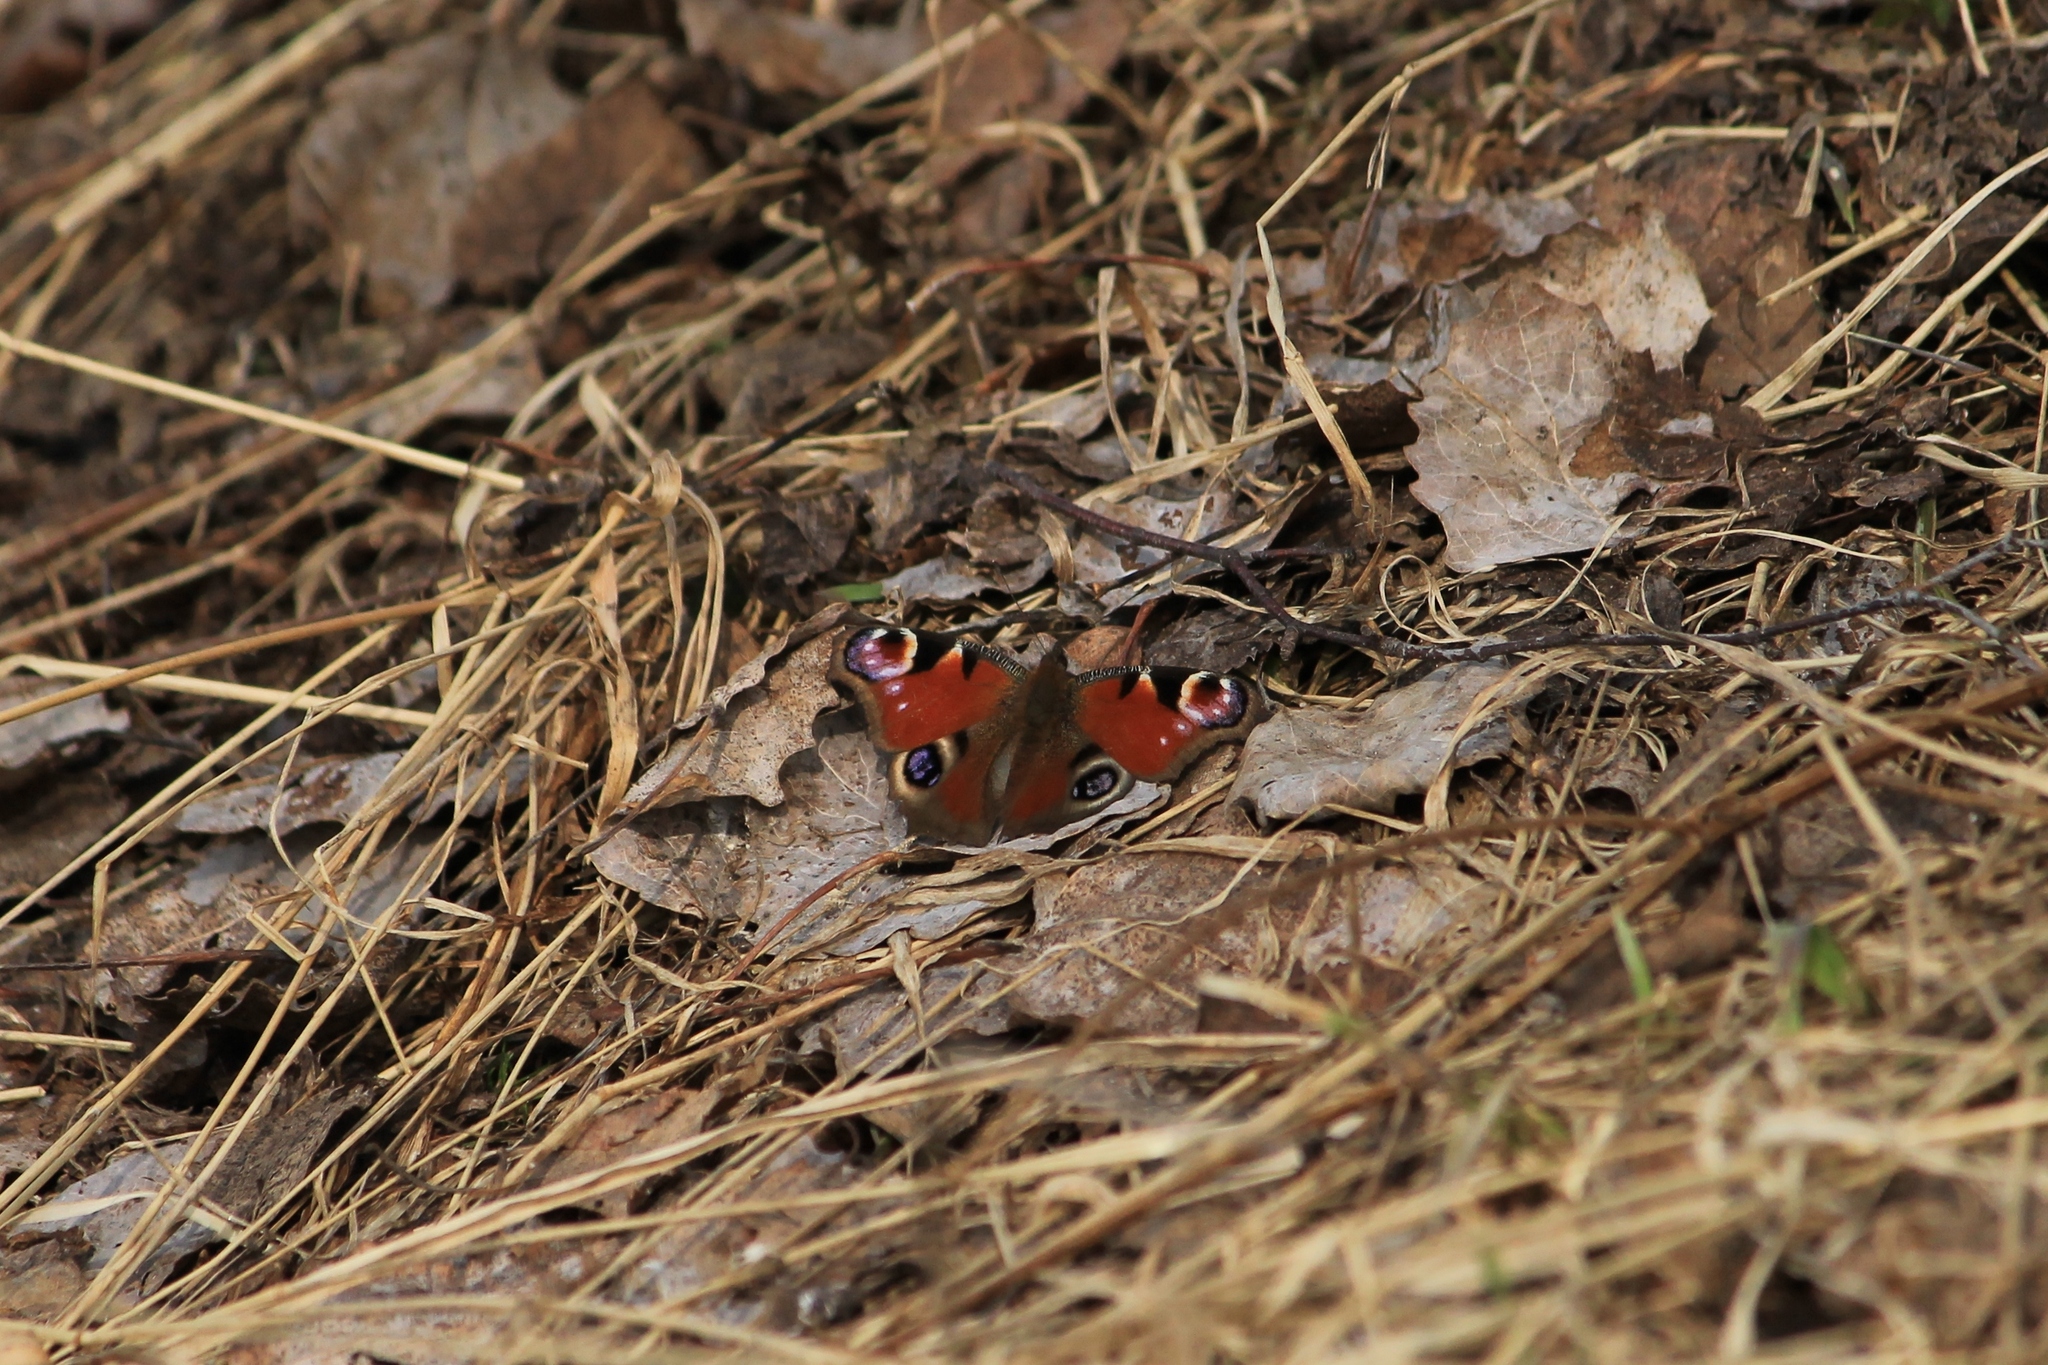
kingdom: Animalia
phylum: Arthropoda
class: Insecta
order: Lepidoptera
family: Nymphalidae
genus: Aglais
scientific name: Aglais io
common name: Peacock
